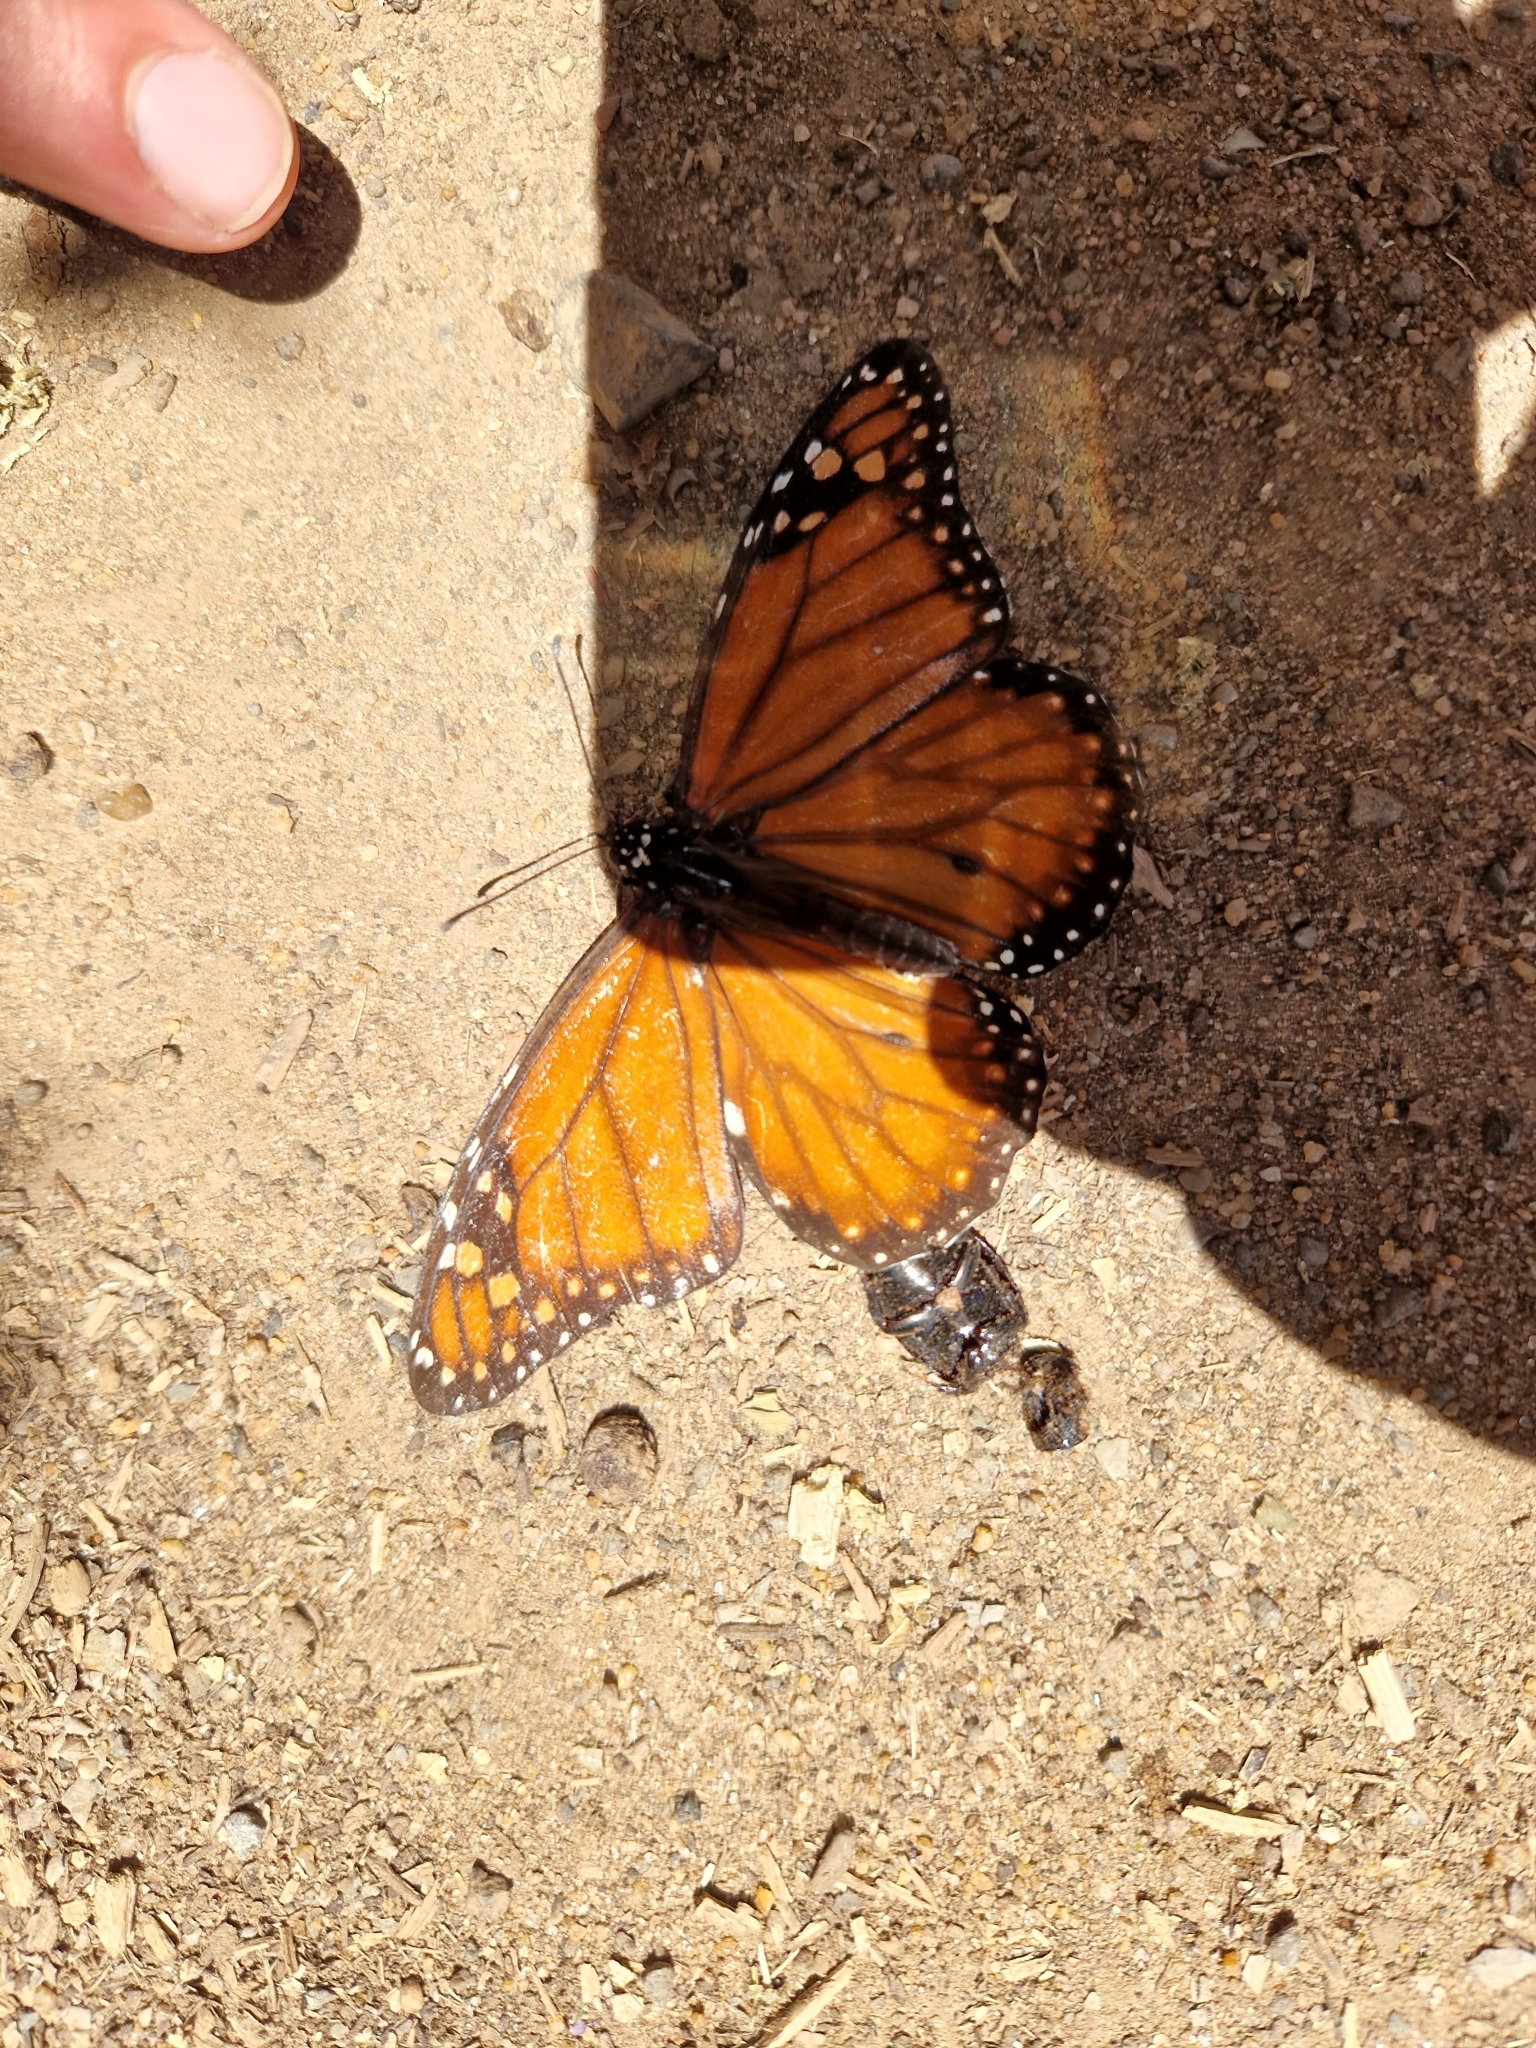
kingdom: Animalia
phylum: Arthropoda
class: Insecta
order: Lepidoptera
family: Nymphalidae
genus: Danaus
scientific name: Danaus erippus
